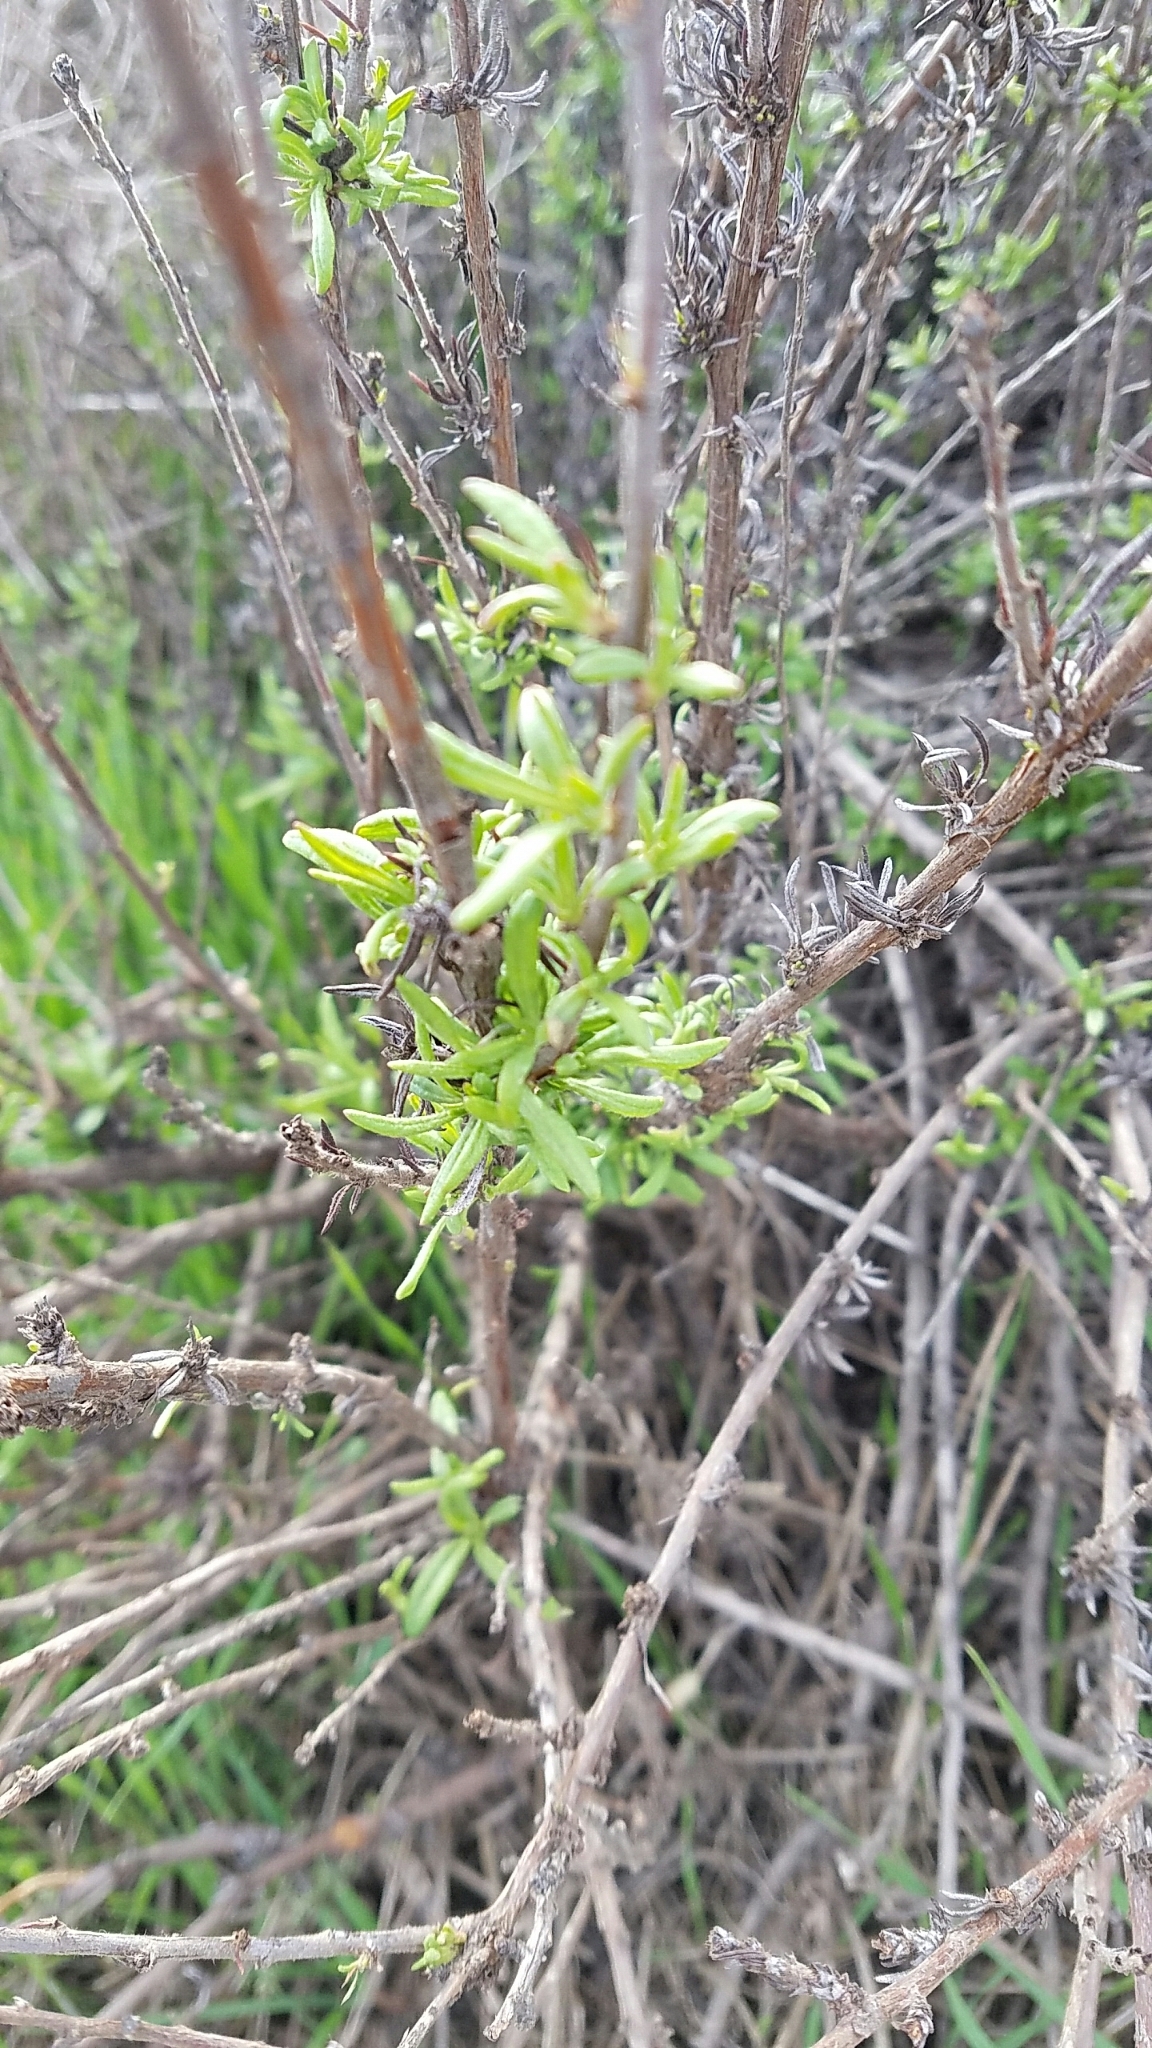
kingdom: Plantae
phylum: Tracheophyta
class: Magnoliopsida
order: Caryophyllales
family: Polygonaceae
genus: Eriogonum
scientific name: Eriogonum fasciculatum
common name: California wild buckwheat
